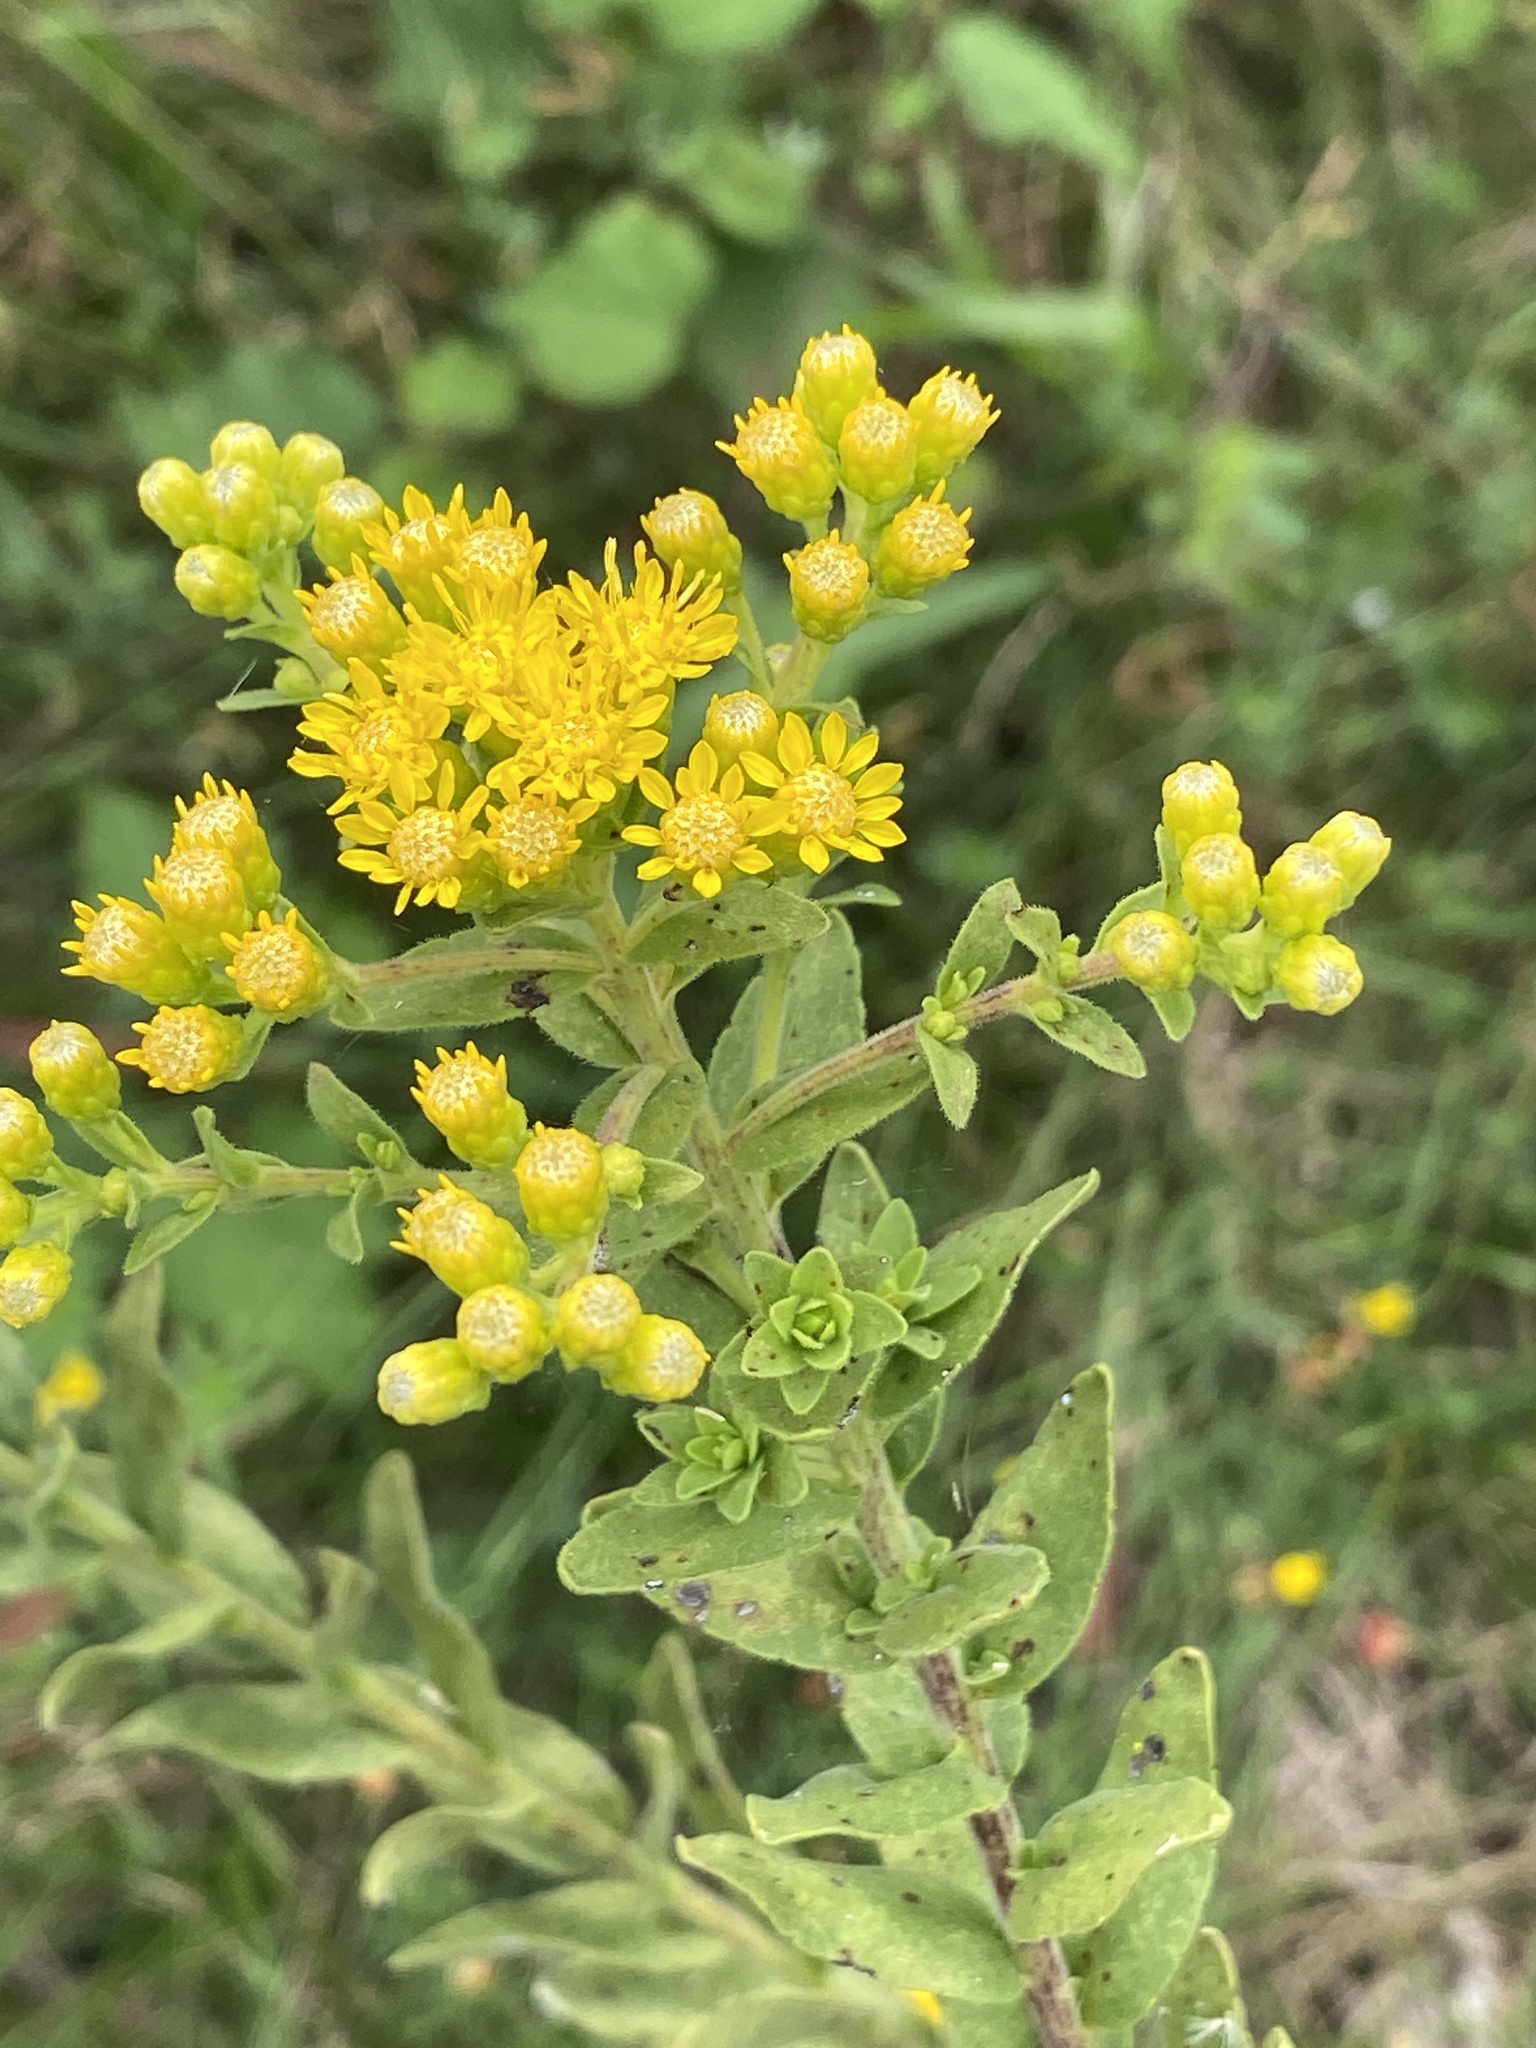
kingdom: Plantae
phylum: Tracheophyta
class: Magnoliopsida
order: Asterales
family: Asteraceae
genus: Solidago
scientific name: Solidago rigida
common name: Rigid goldenrod
